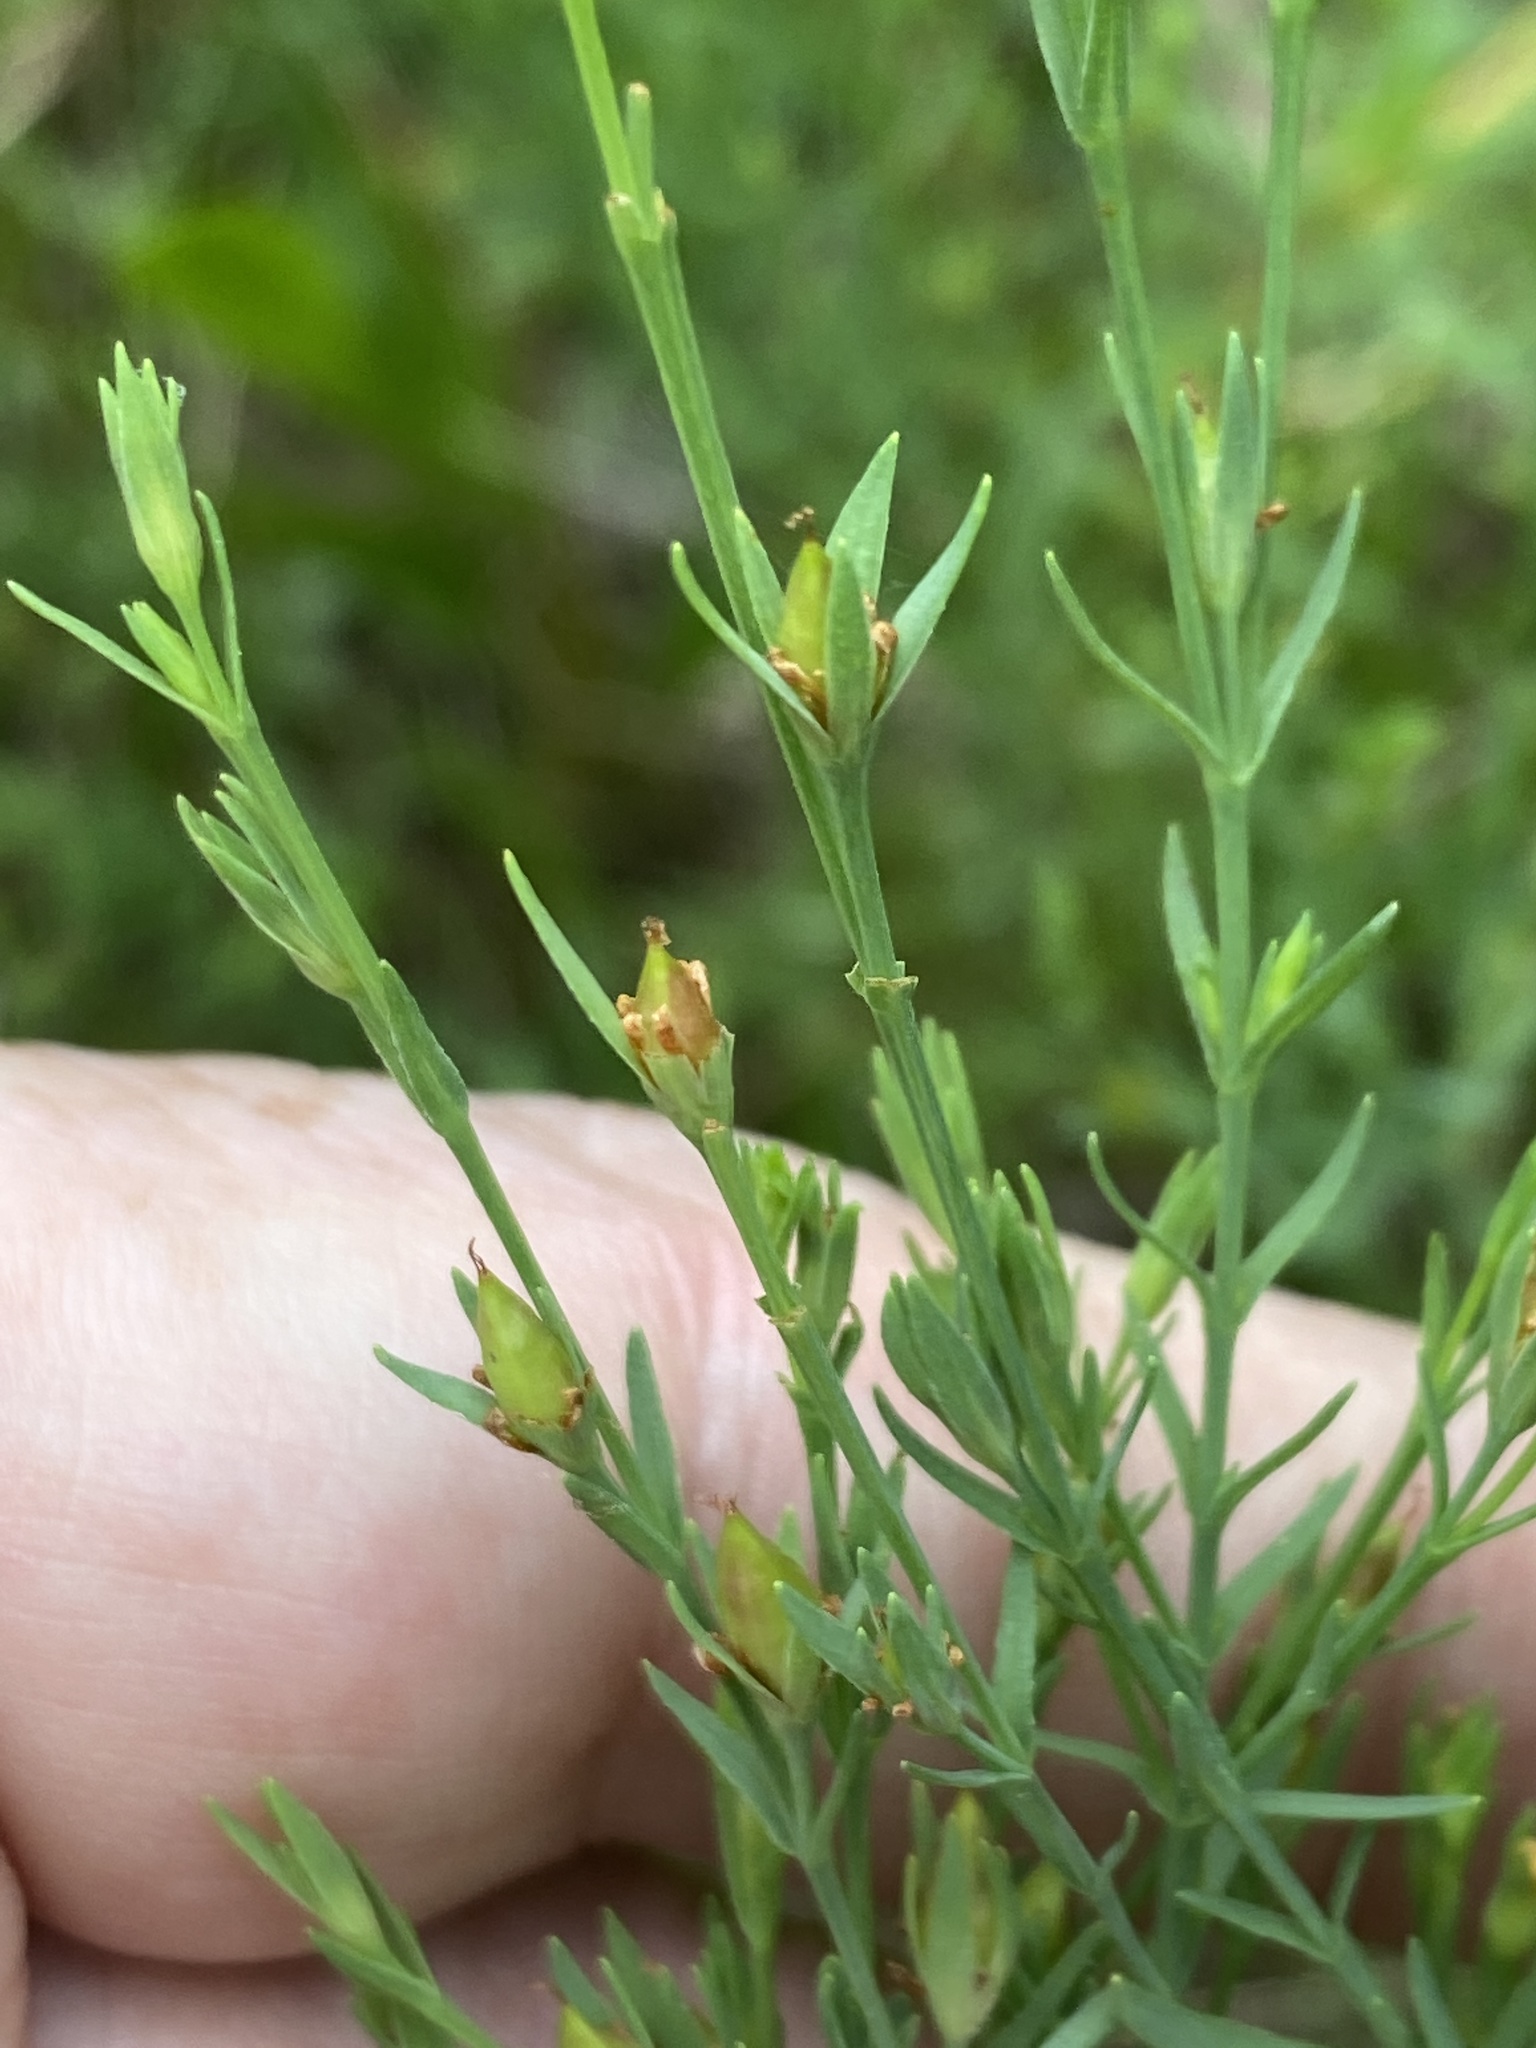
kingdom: Plantae
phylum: Tracheophyta
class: Magnoliopsida
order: Malpighiales
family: Hypericaceae
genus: Hypericum
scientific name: Hypericum drummondii
